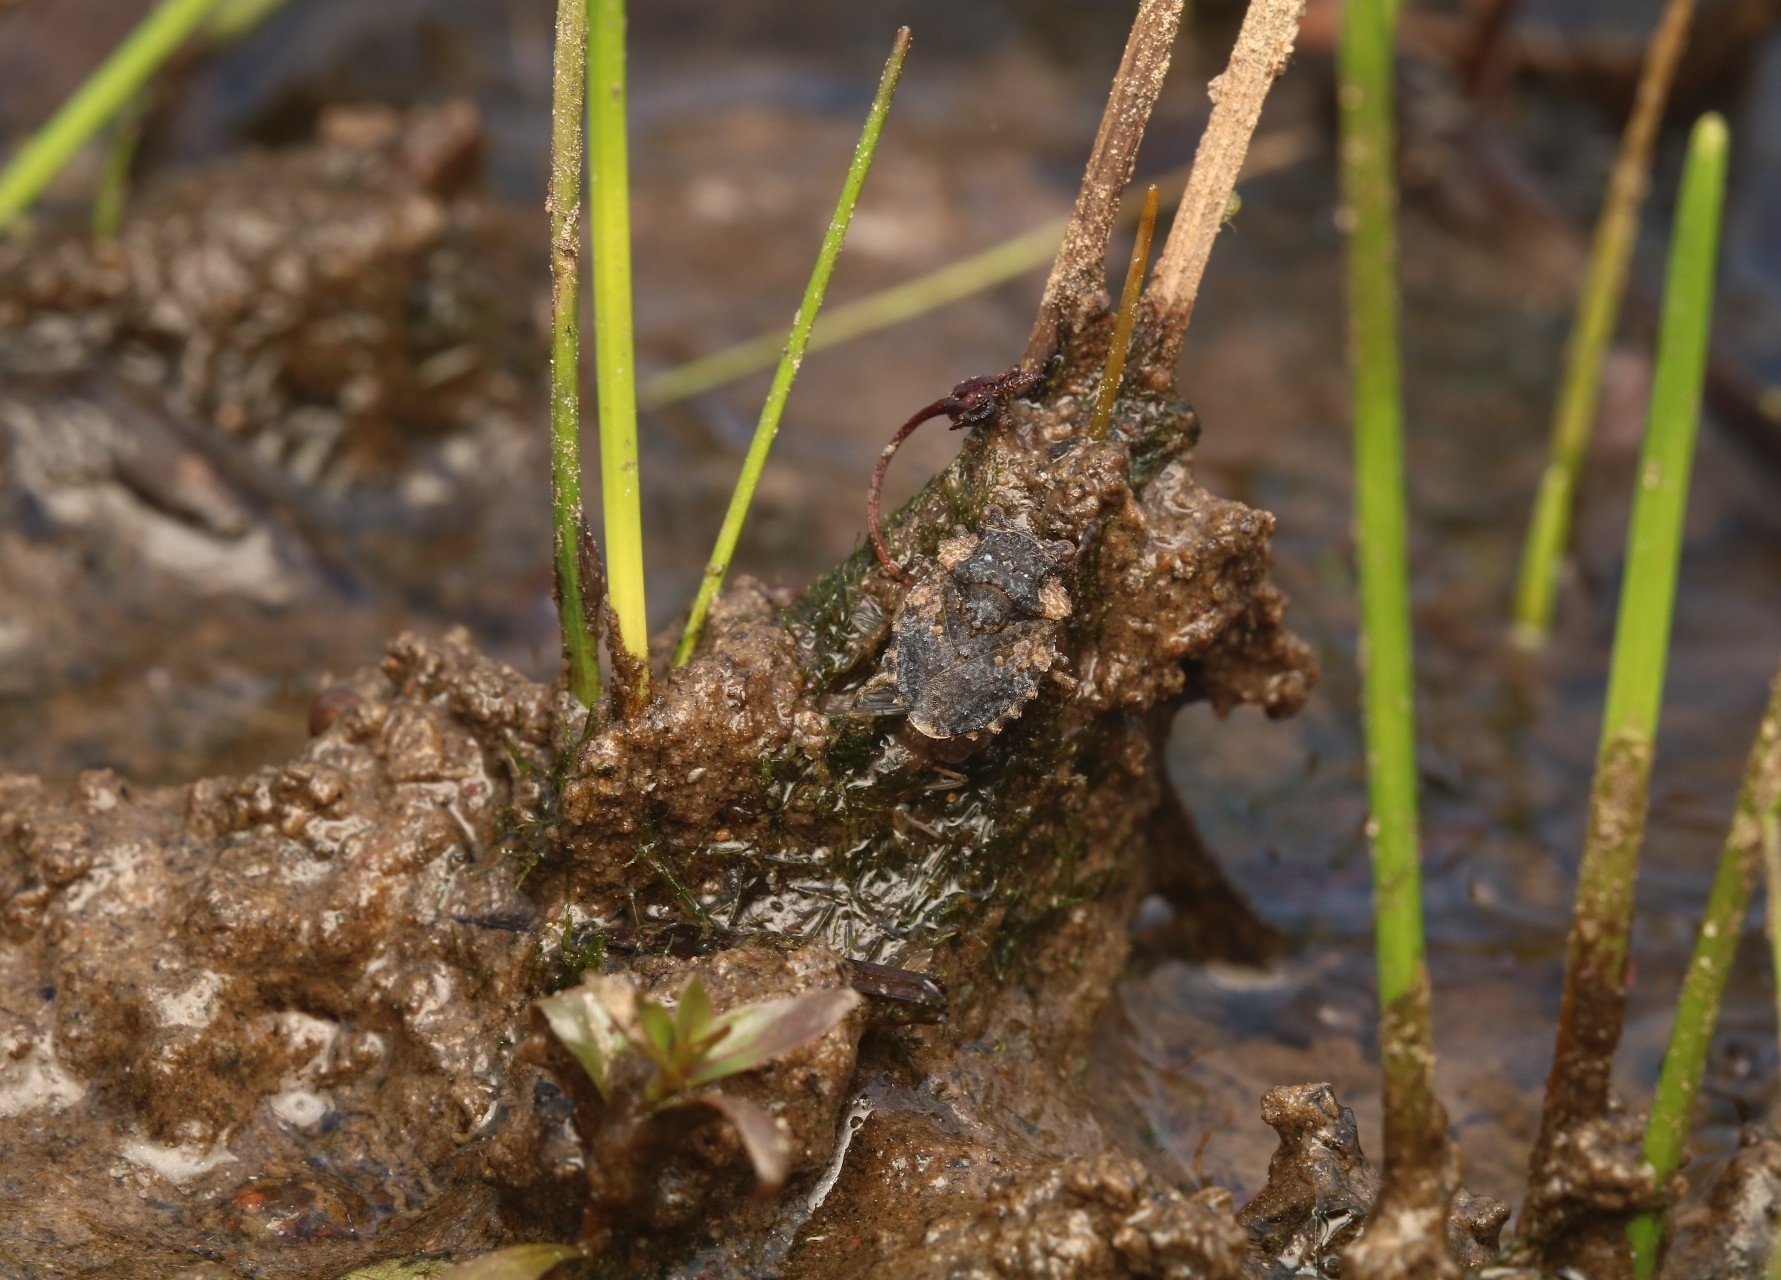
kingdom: Animalia
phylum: Arthropoda
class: Insecta
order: Hemiptera
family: Gelastocoridae
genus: Gelastocoris
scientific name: Gelastocoris oculatus
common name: Toad bug
